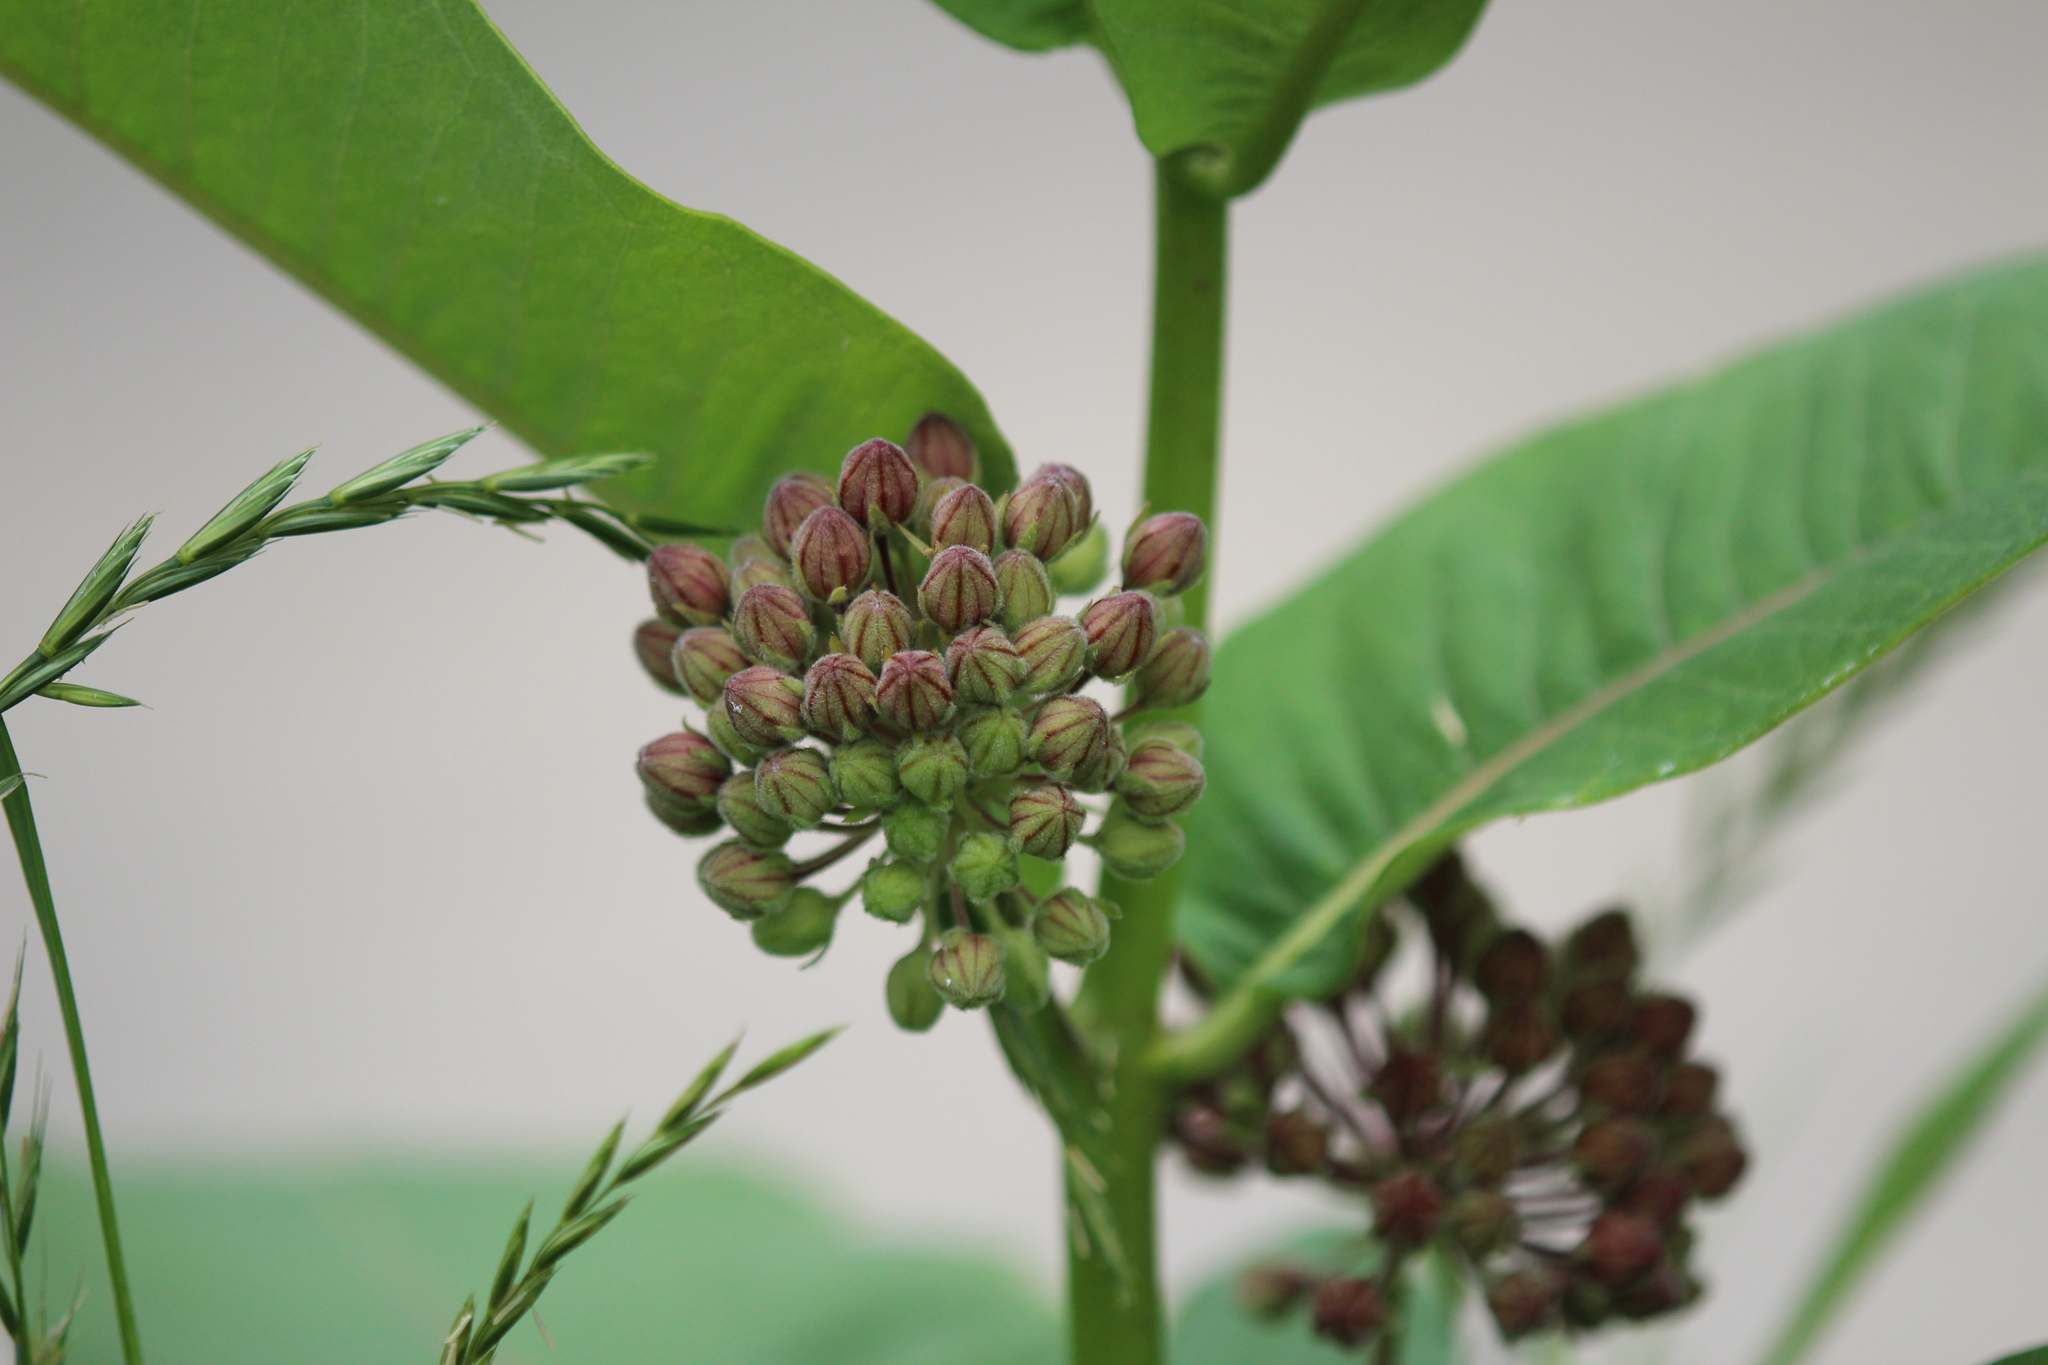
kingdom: Plantae
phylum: Tracheophyta
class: Magnoliopsida
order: Gentianales
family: Apocynaceae
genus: Asclepias
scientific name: Asclepias syriaca
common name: Common milkweed
